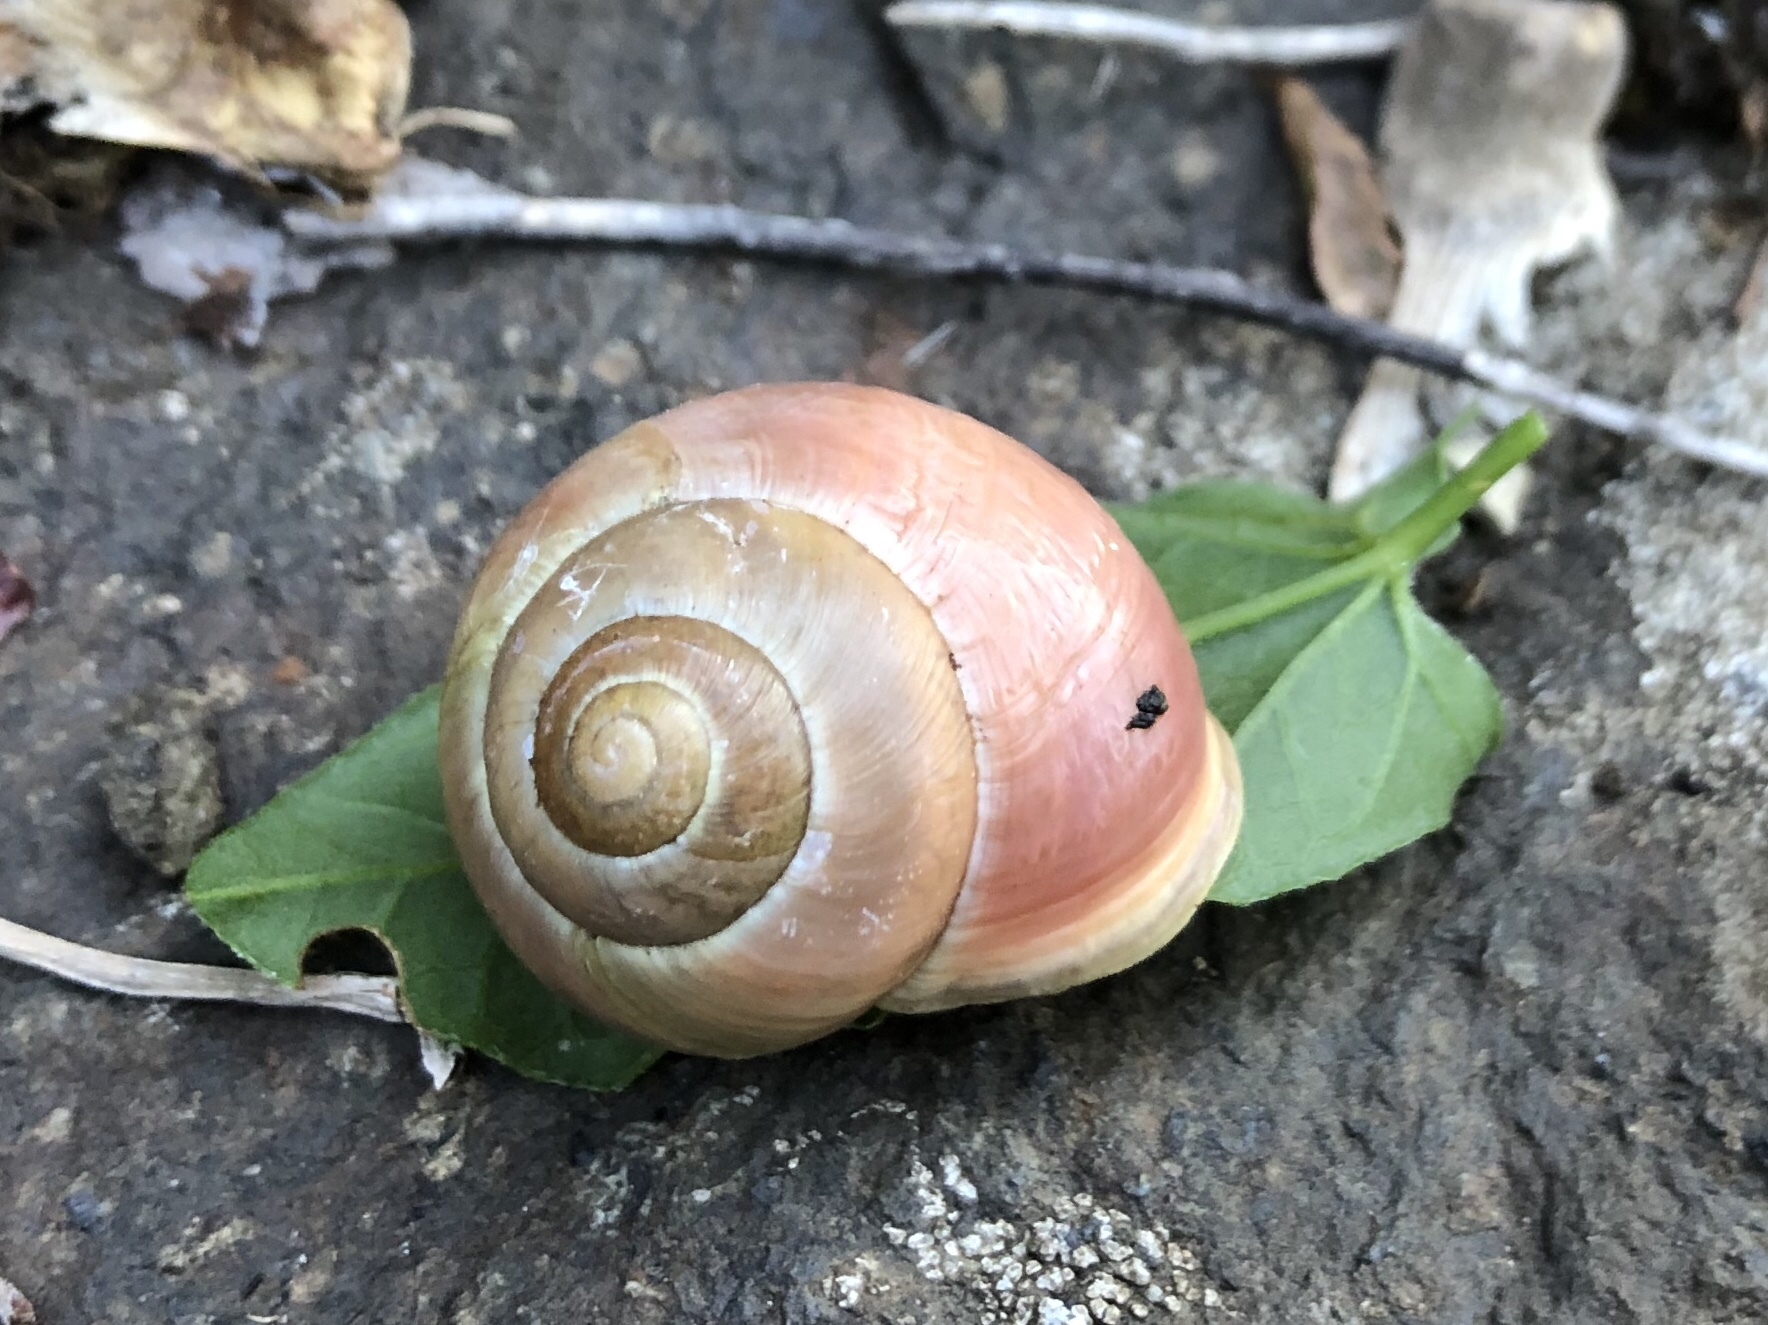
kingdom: Animalia
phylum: Mollusca
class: Gastropoda
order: Stylommatophora
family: Helicidae
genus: Cepaea
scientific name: Cepaea hortensis
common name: White-lip gardensnail
